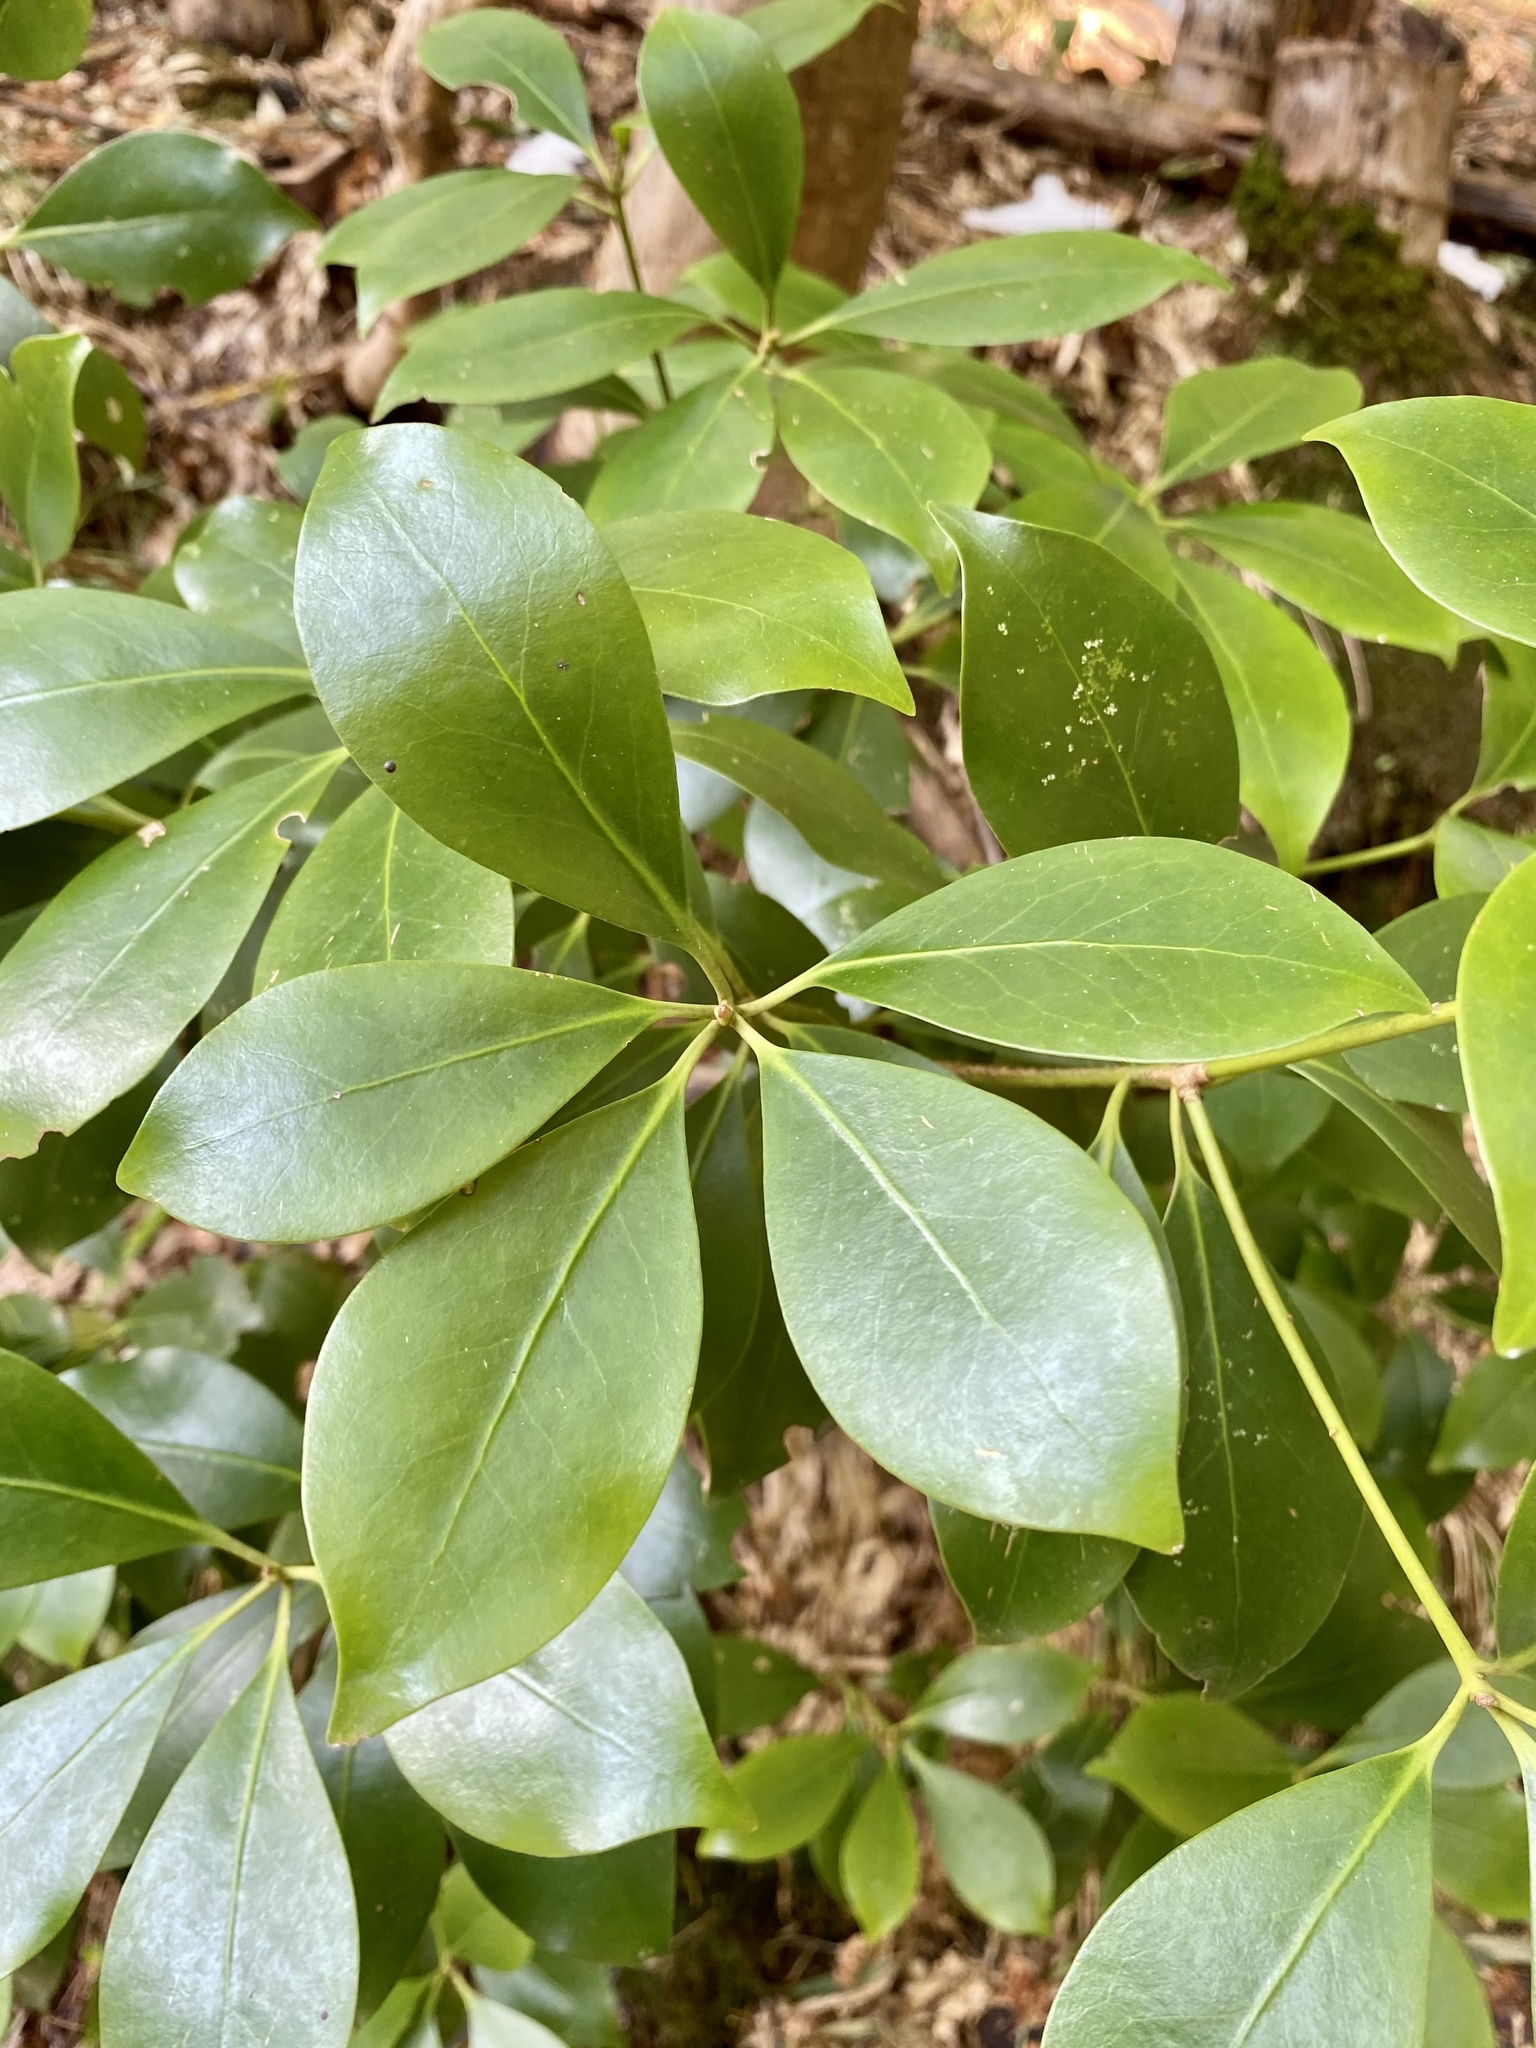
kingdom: Plantae
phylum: Tracheophyta
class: Magnoliopsida
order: Austrobaileyales
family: Schisandraceae
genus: Illicium
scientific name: Illicium anisatum
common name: Sacred anisetree
